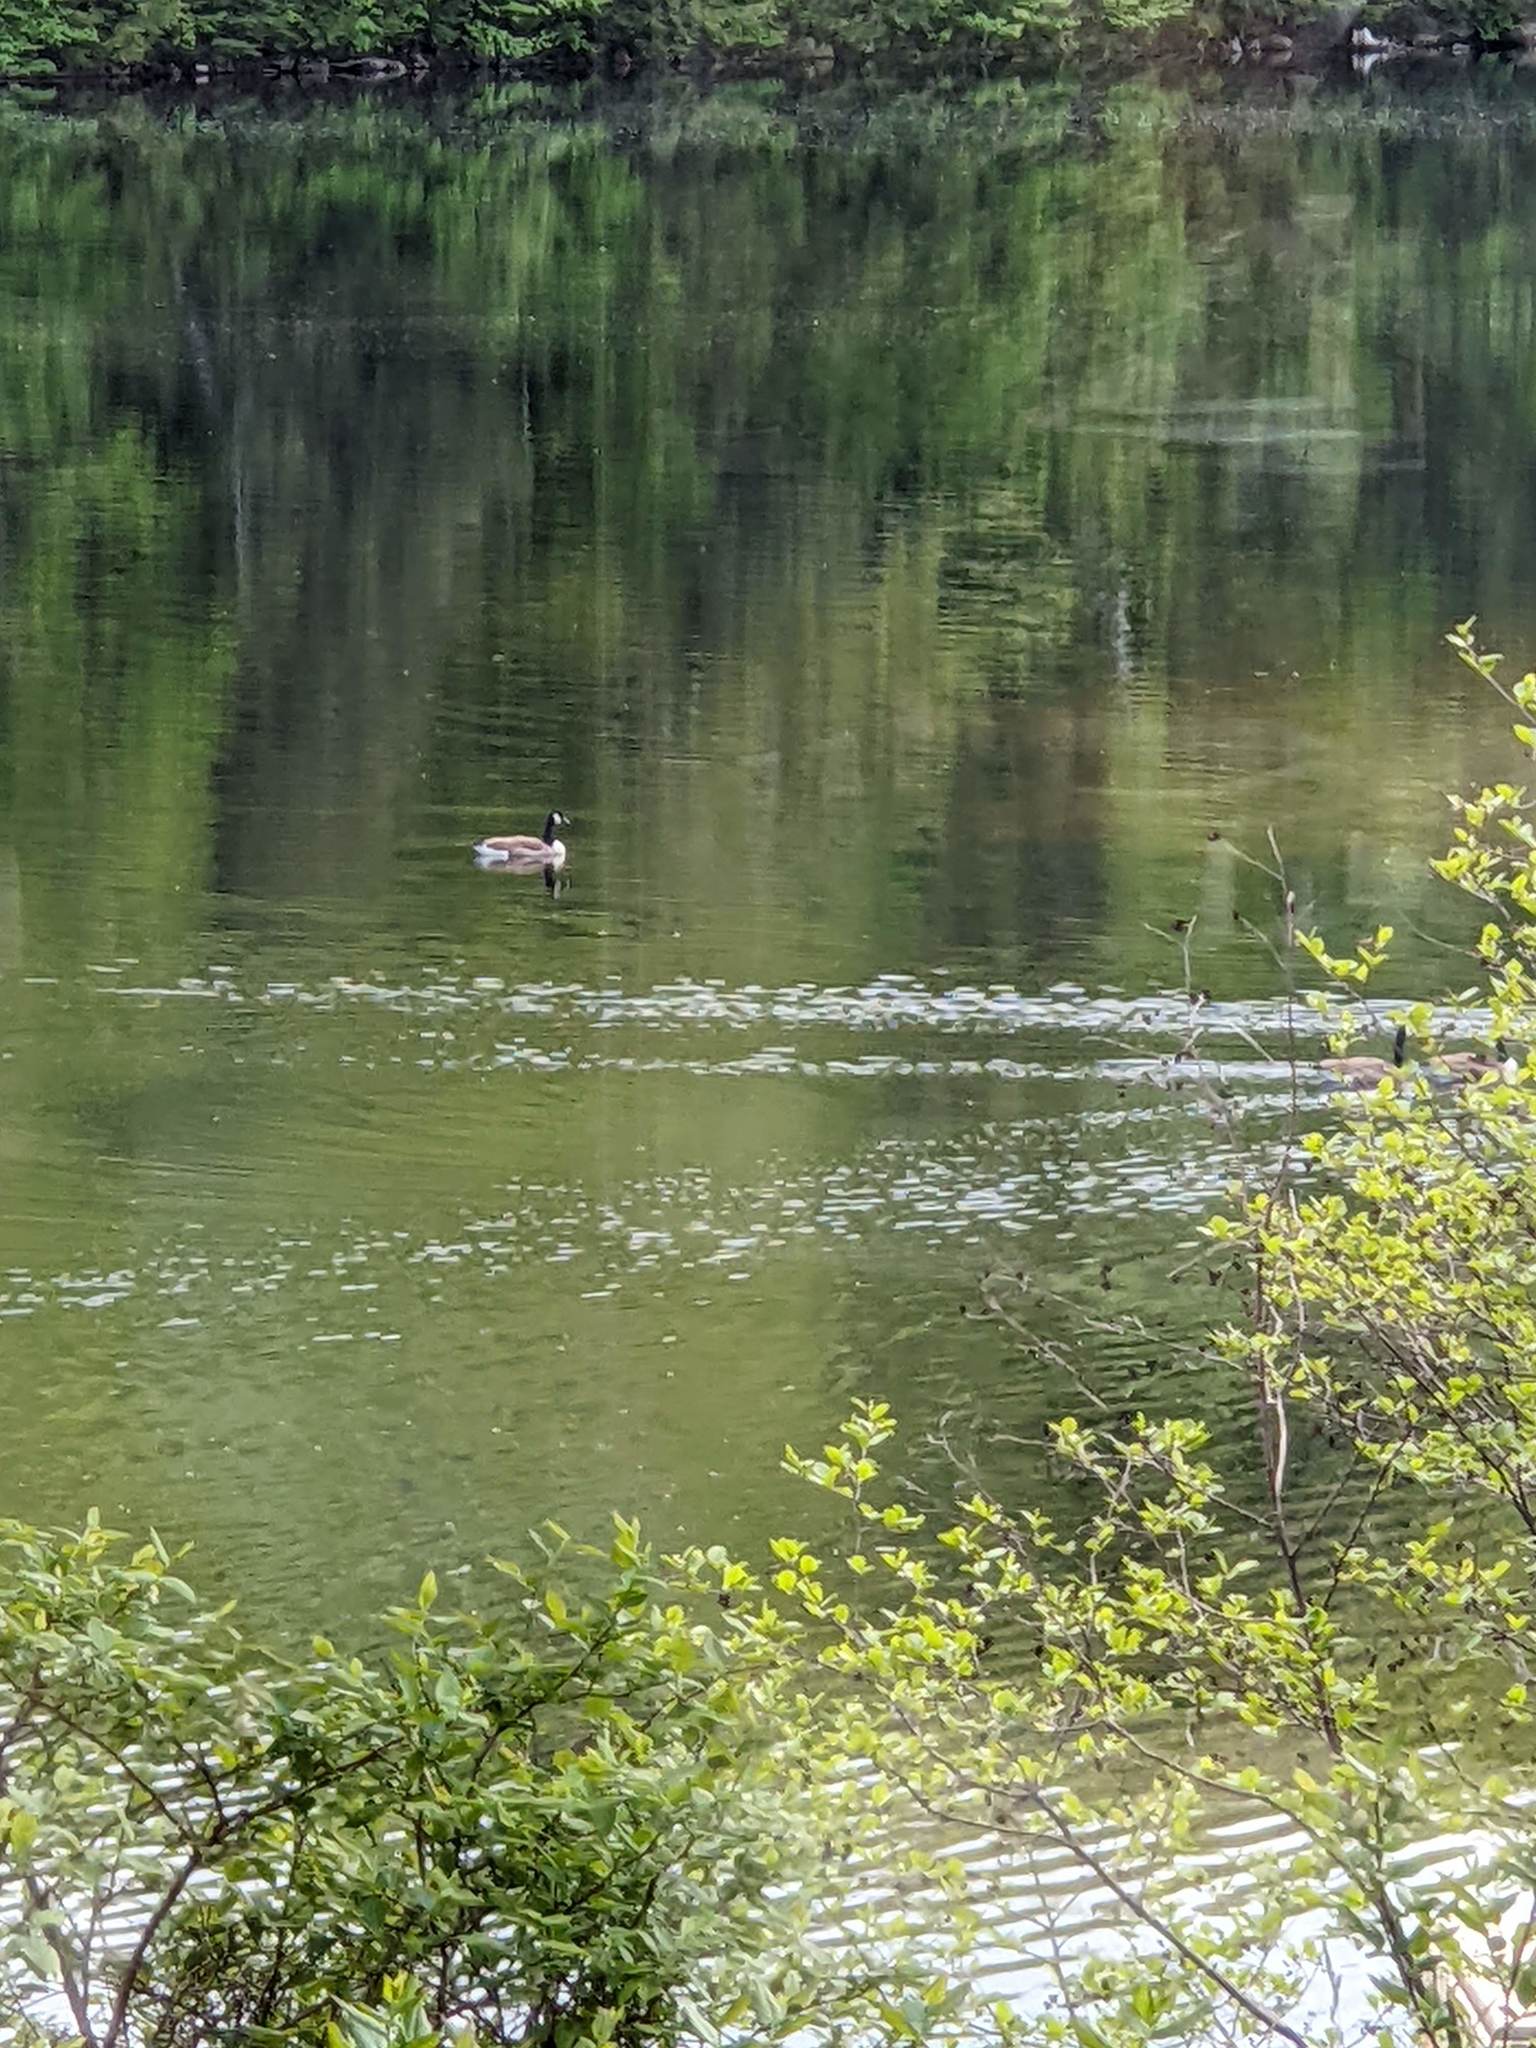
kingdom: Animalia
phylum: Chordata
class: Aves
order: Anseriformes
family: Anatidae
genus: Branta
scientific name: Branta canadensis
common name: Canada goose
